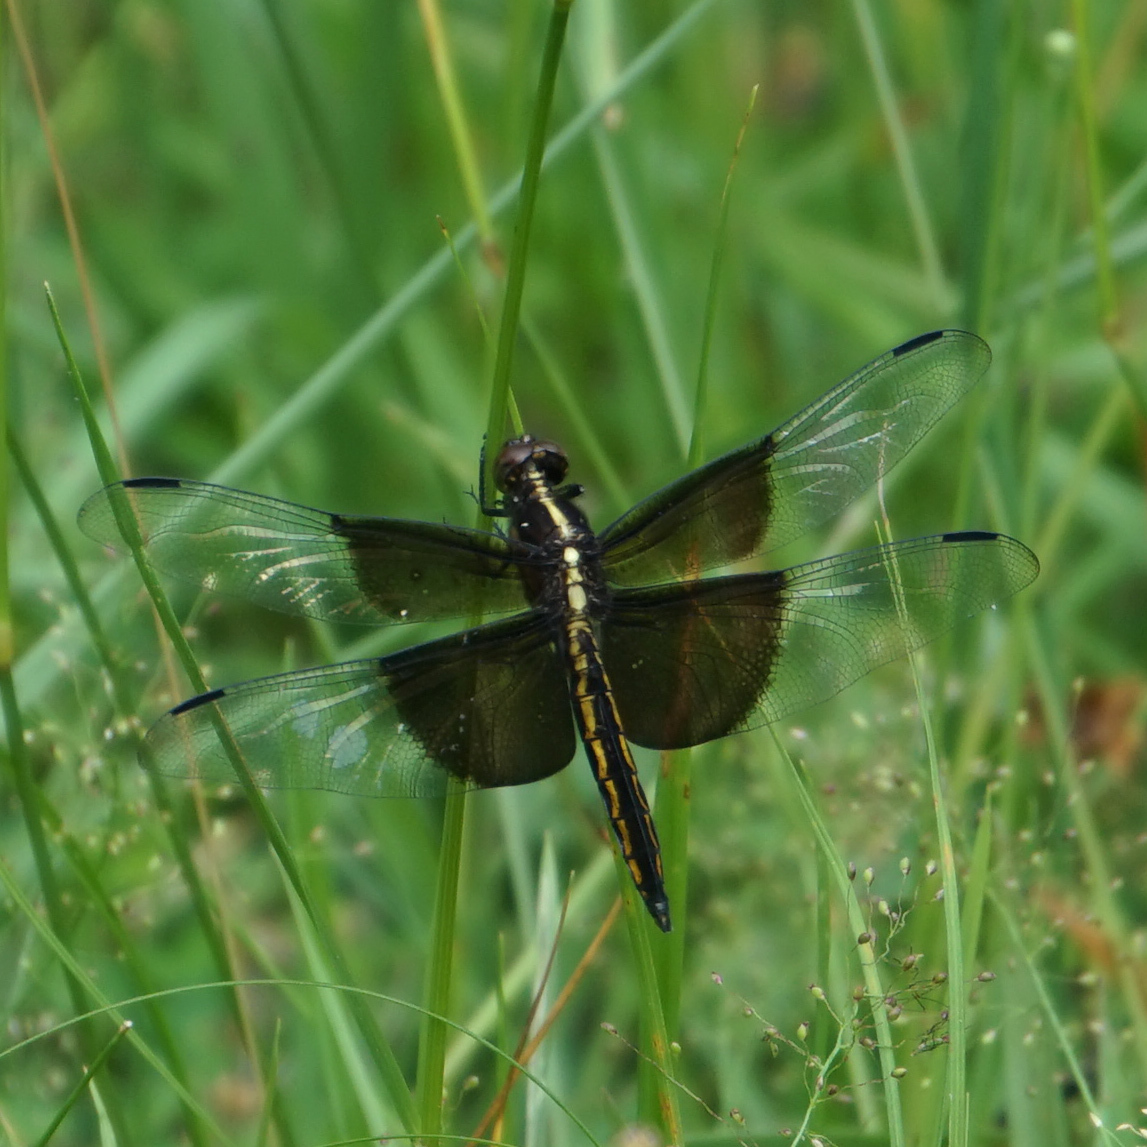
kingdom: Animalia
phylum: Arthropoda
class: Insecta
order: Odonata
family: Libellulidae
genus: Libellula
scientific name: Libellula luctuosa
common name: Widow skimmer
